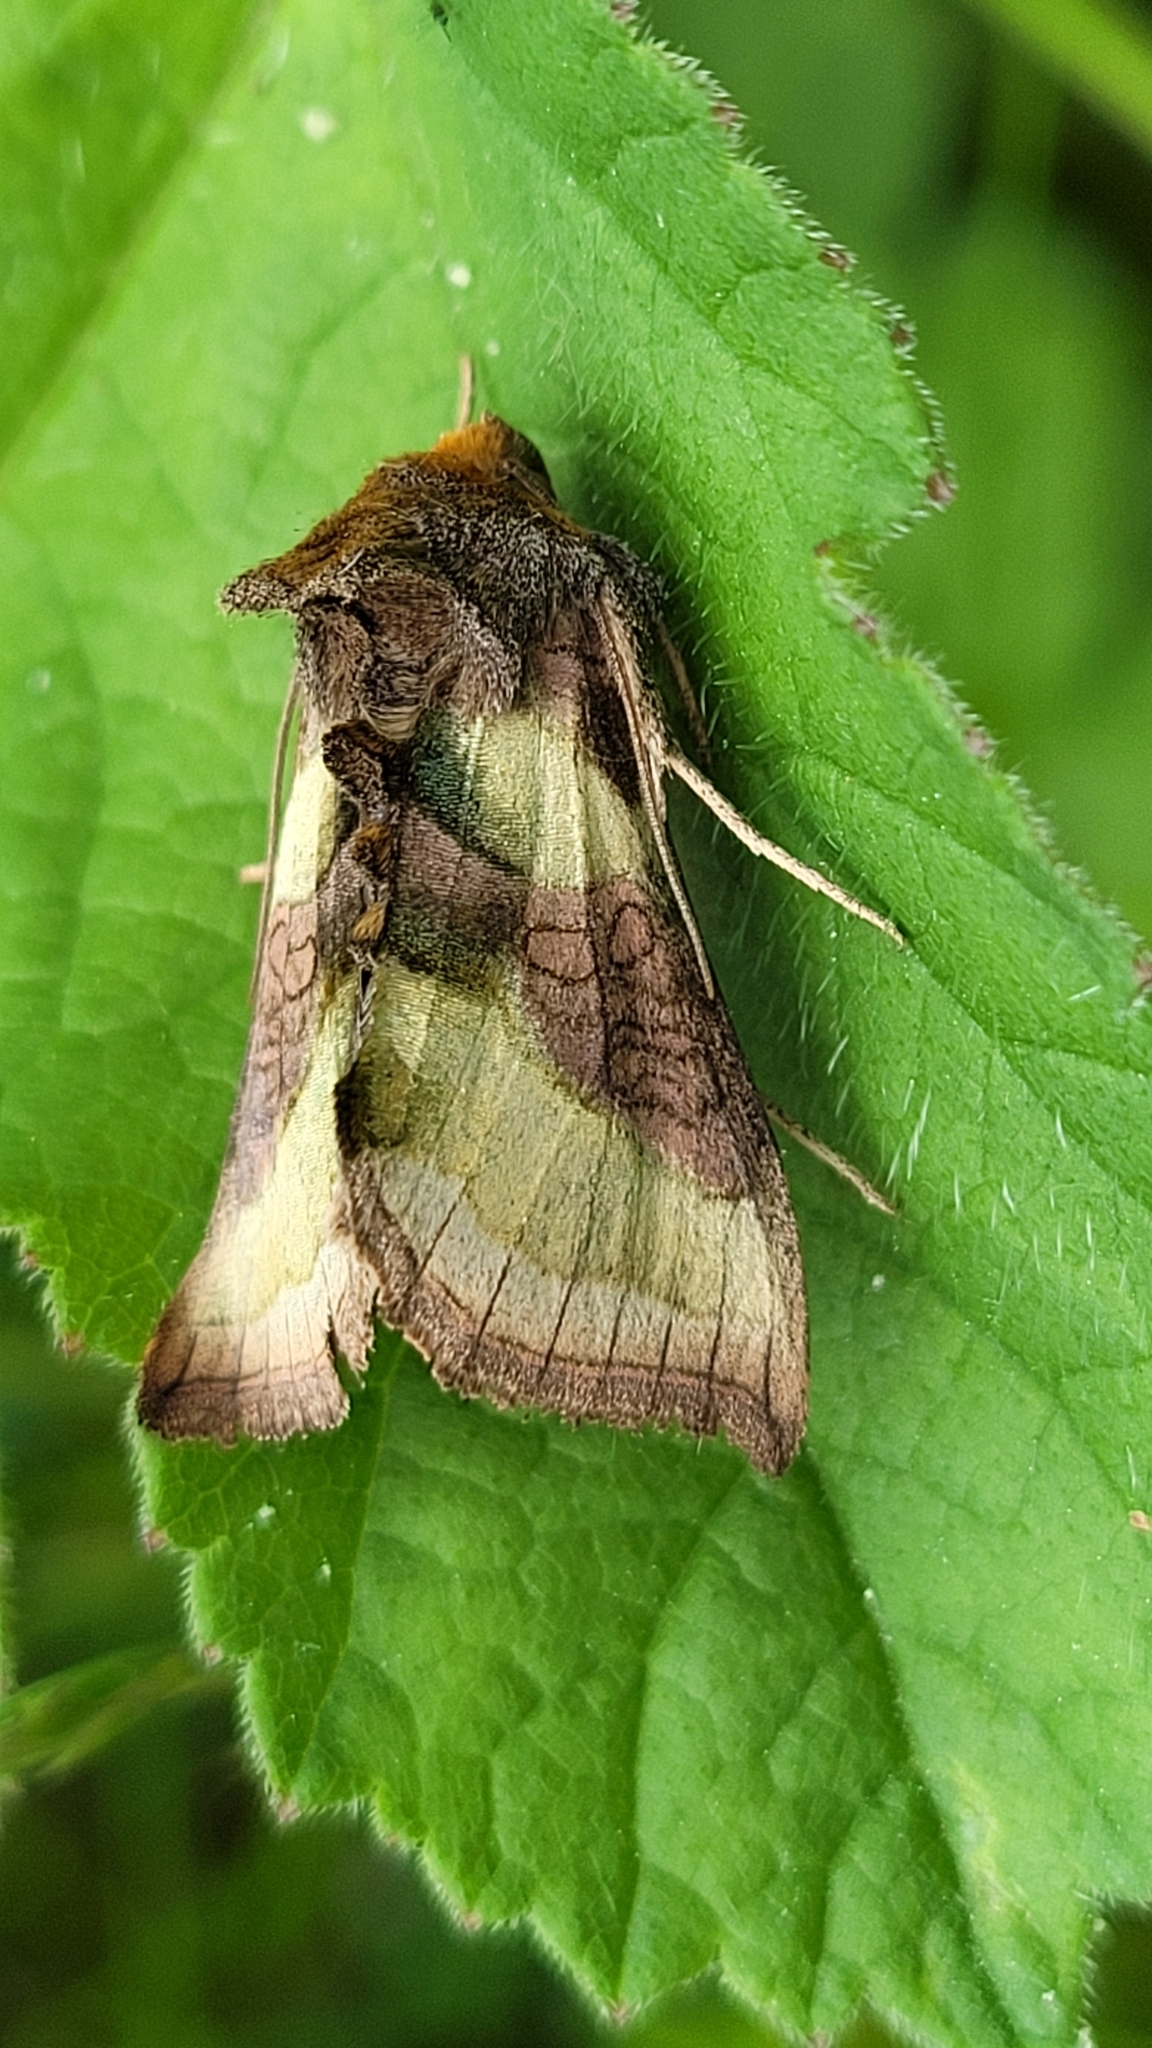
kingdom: Animalia
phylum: Arthropoda
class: Insecta
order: Lepidoptera
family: Noctuidae
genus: Diachrysia
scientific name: Diachrysia chrysitis
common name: Burnished brass
